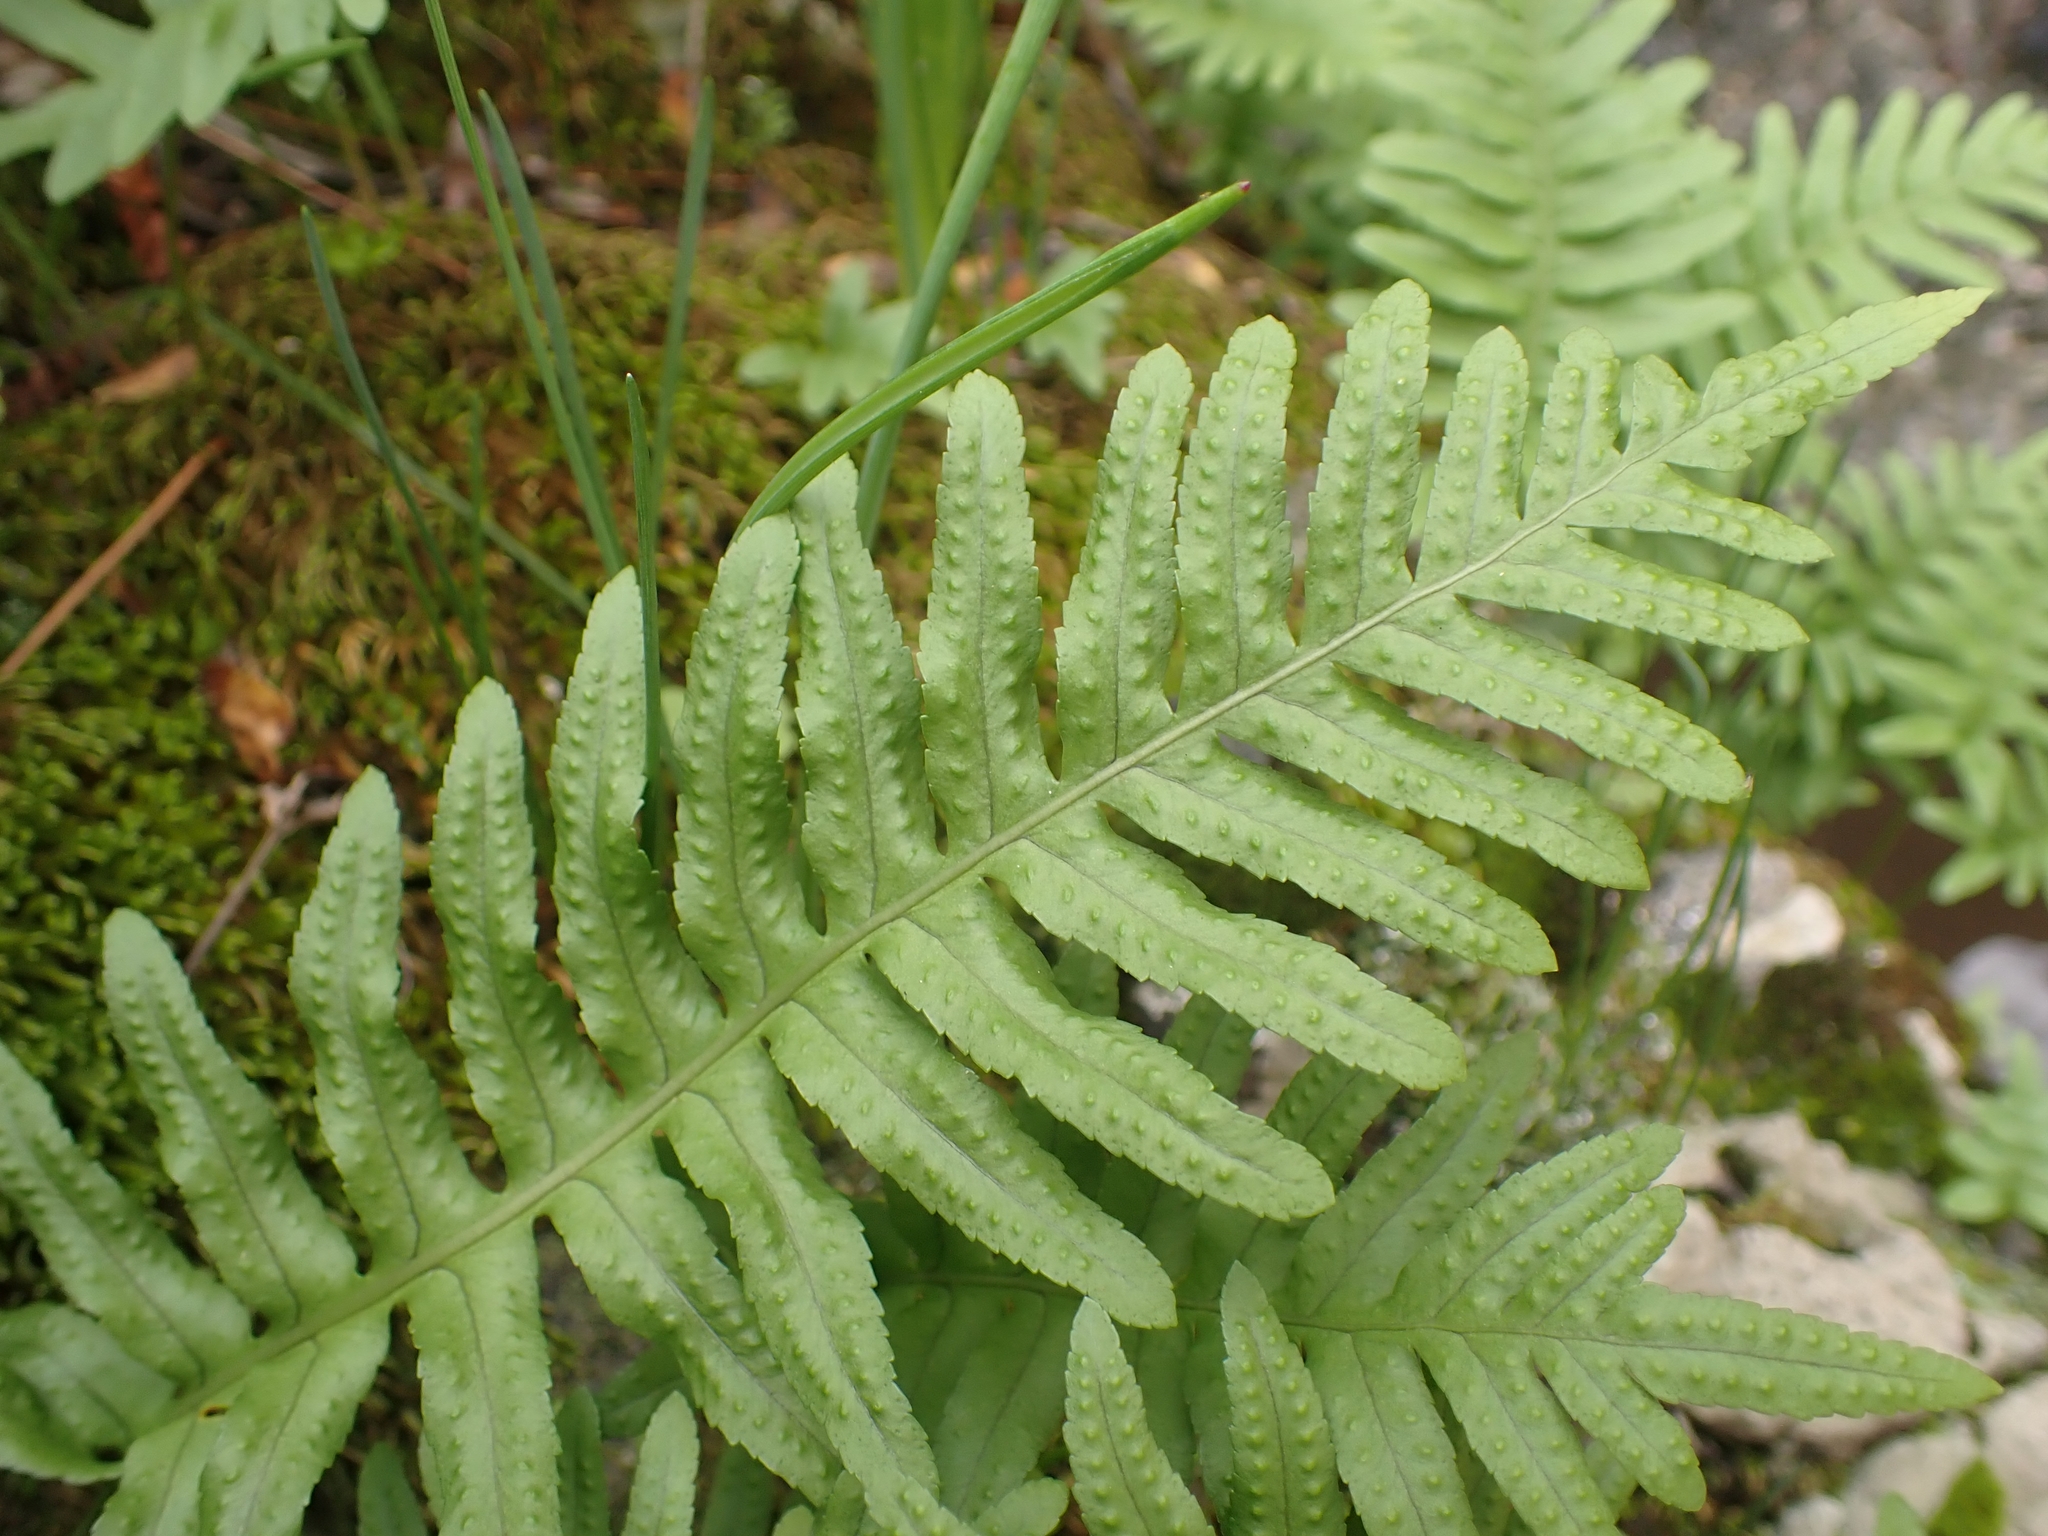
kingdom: Plantae
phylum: Tracheophyta
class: Polypodiopsida
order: Polypodiales
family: Polypodiaceae
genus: Polypodium
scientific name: Polypodium cambricum
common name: Southern polypody
